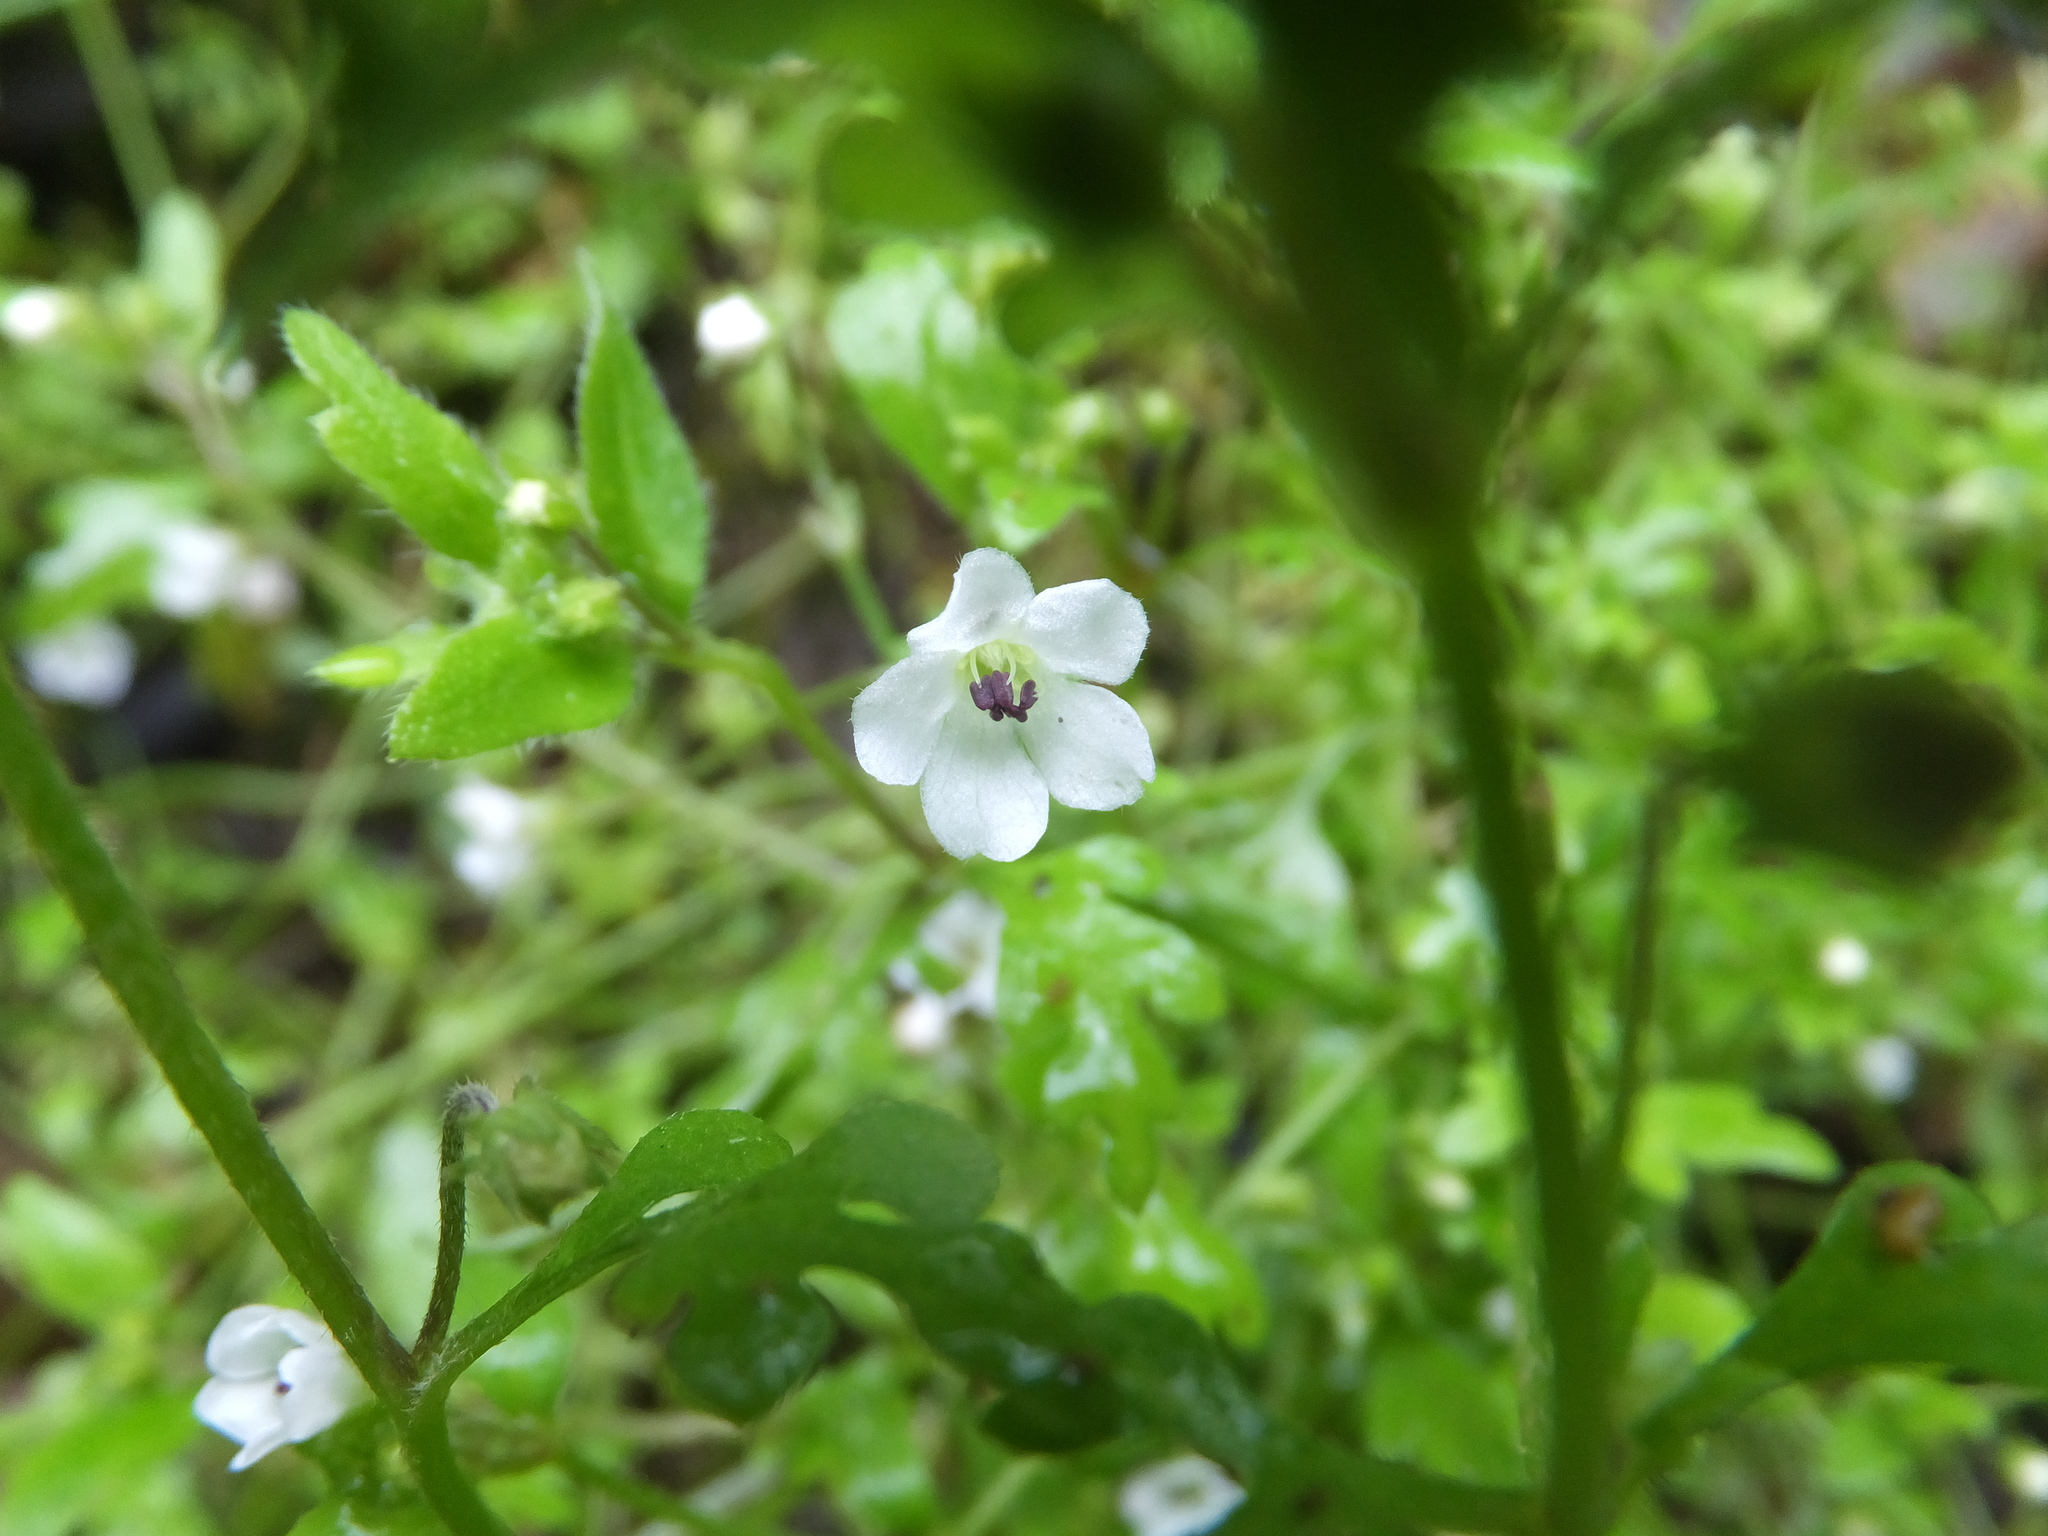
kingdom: Plantae
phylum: Tracheophyta
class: Magnoliopsida
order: Boraginales
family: Hydrophyllaceae
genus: Nemophila
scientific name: Nemophila heterophylla
